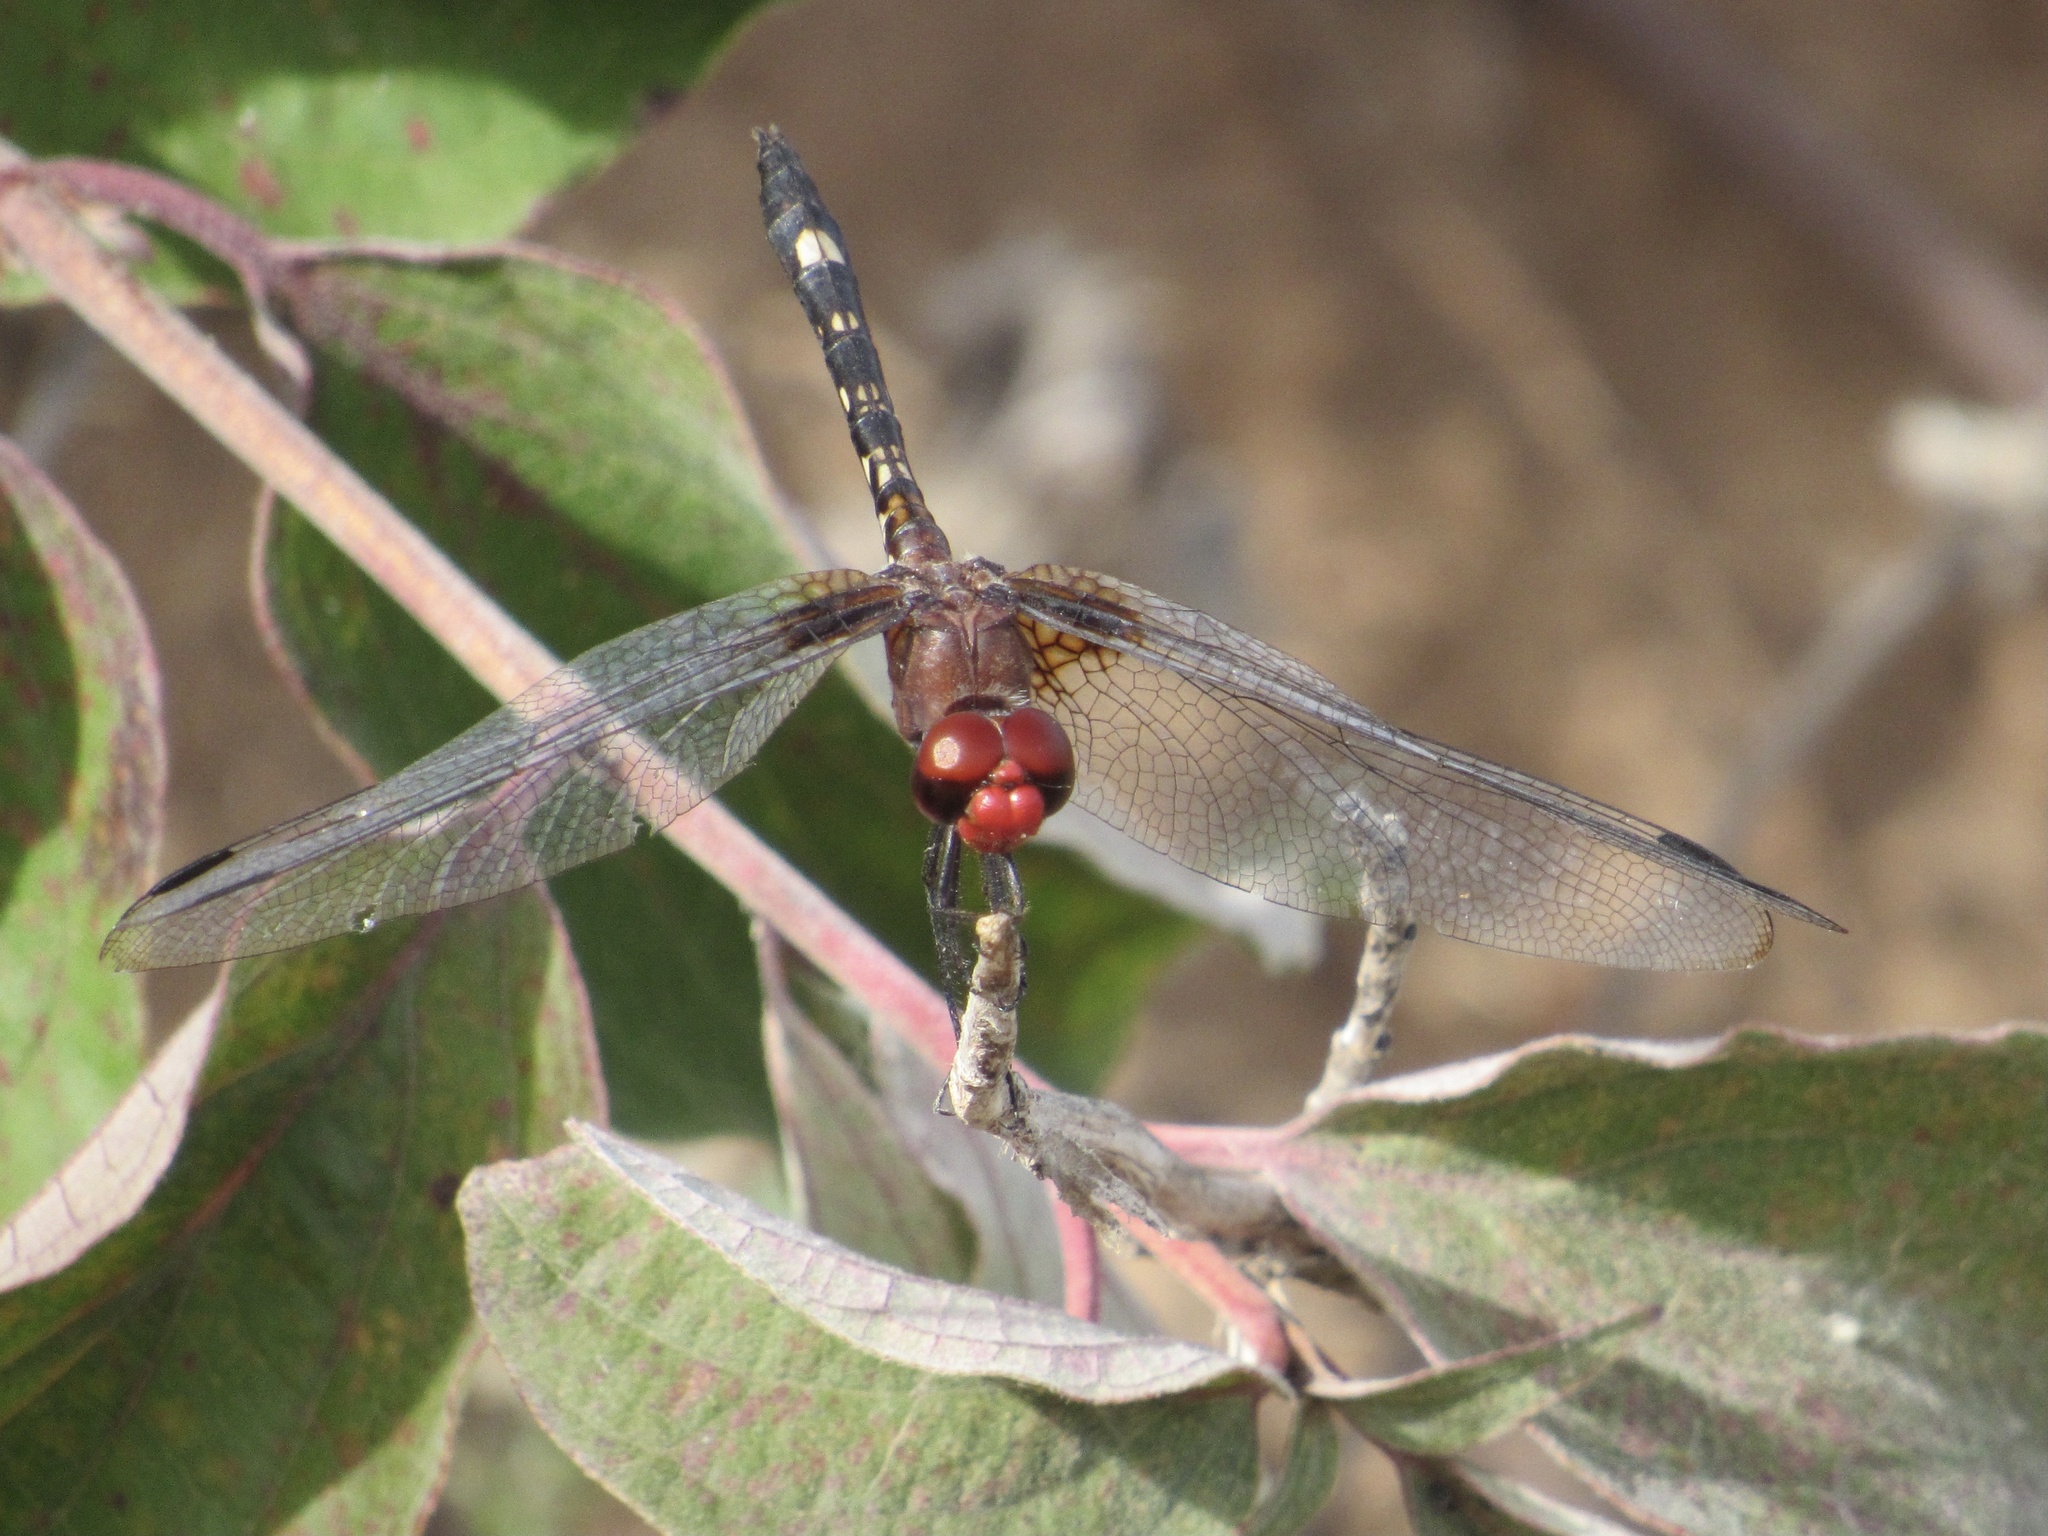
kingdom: Animalia
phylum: Arthropoda
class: Insecta
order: Odonata
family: Libellulidae
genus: Dythemis
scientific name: Dythemis fugax
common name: Checkered setwing
